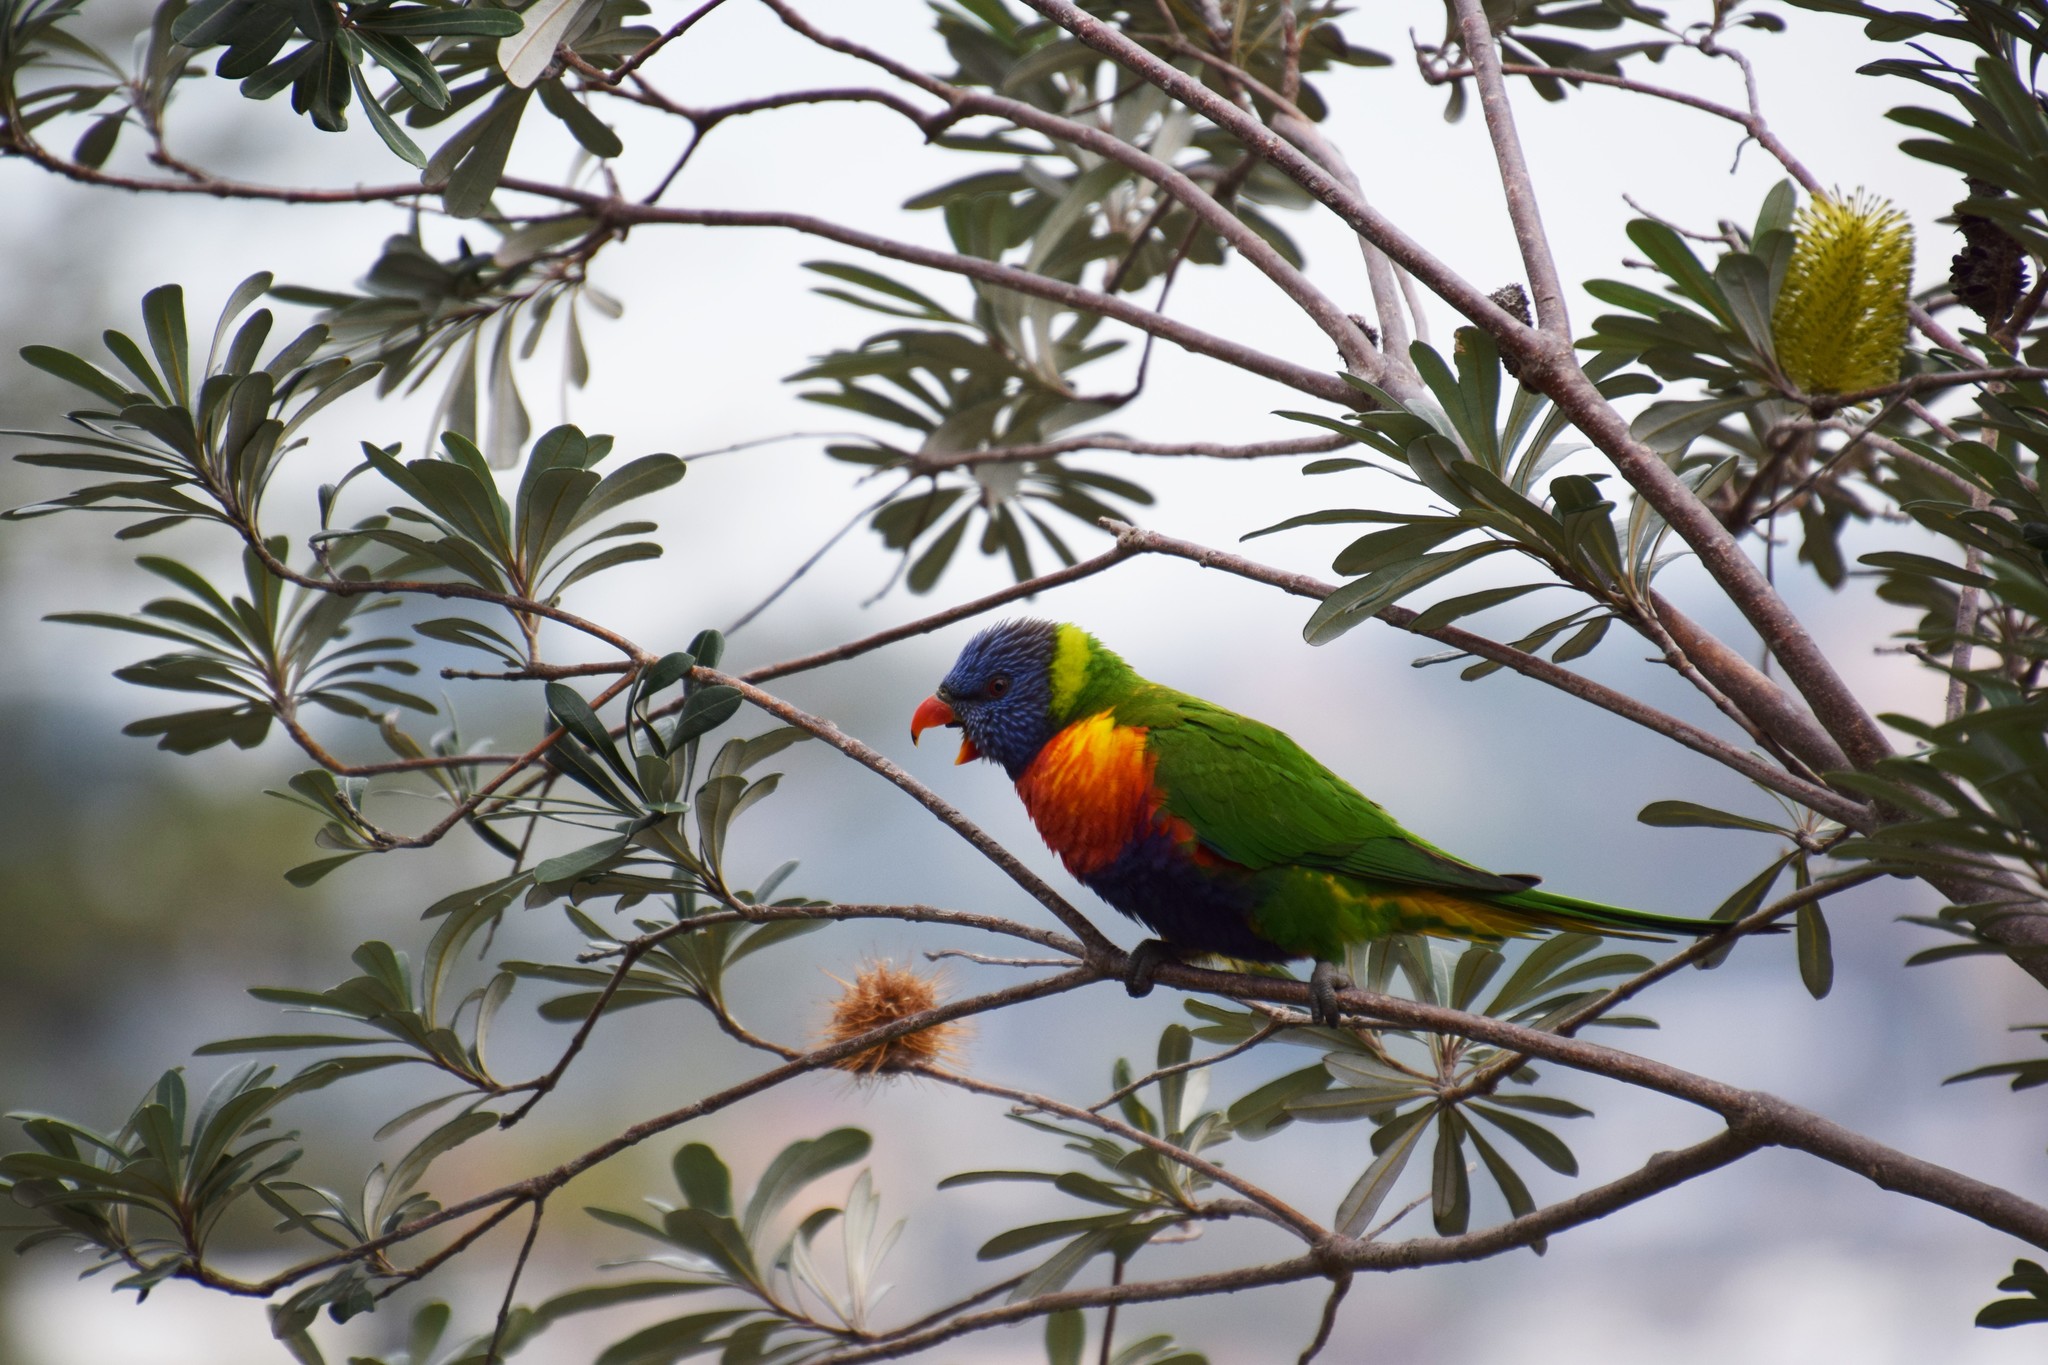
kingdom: Animalia
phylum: Chordata
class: Aves
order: Psittaciformes
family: Psittacidae
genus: Trichoglossus
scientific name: Trichoglossus haematodus
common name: Coconut lorikeet
